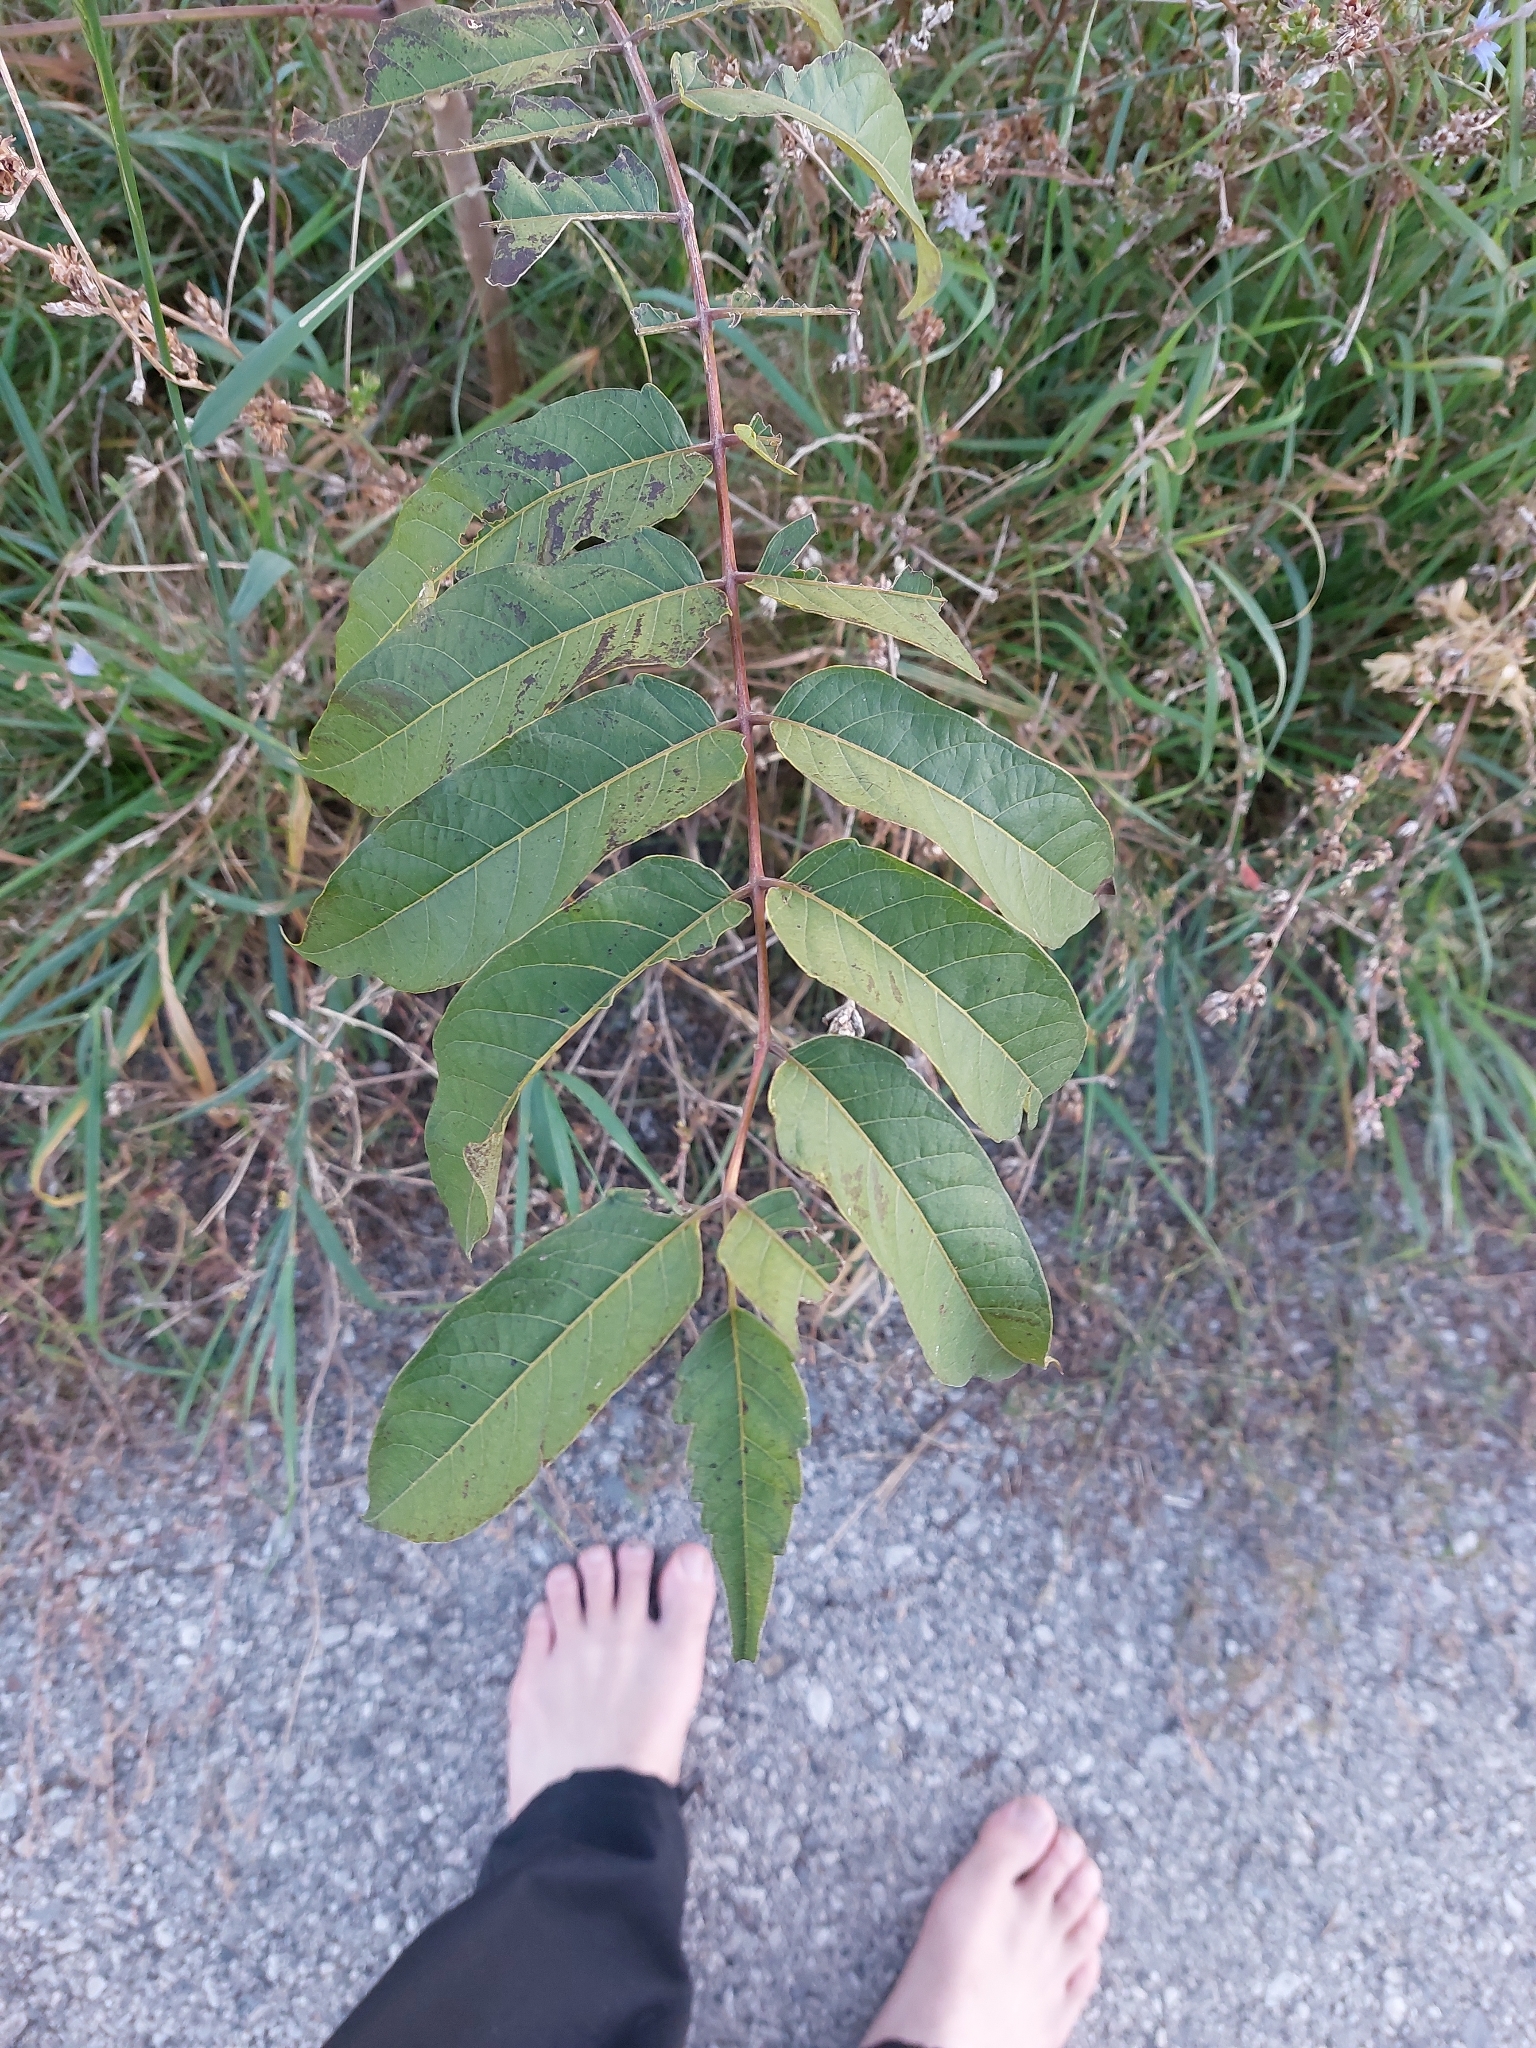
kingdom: Plantae
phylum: Tracheophyta
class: Magnoliopsida
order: Sapindales
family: Simaroubaceae
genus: Ailanthus
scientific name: Ailanthus altissima
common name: Tree-of-heaven
